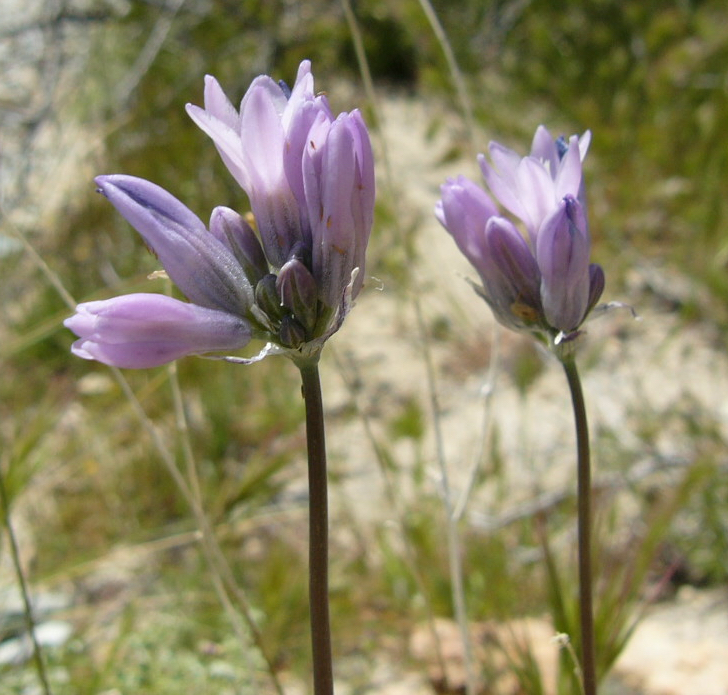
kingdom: Plantae
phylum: Tracheophyta
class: Liliopsida
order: Asparagales
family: Asparagaceae
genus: Dipterostemon
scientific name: Dipterostemon capitatus
